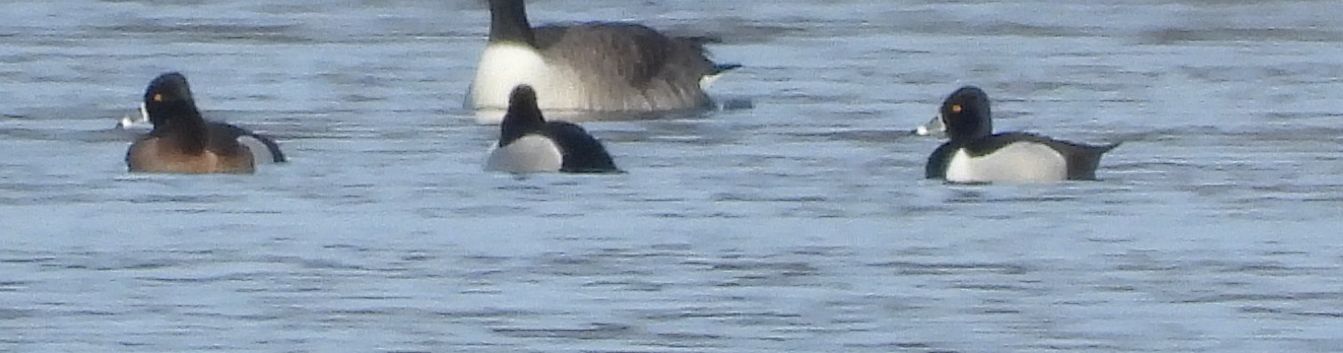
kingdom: Animalia
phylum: Chordata
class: Aves
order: Anseriformes
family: Anatidae
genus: Aythya
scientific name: Aythya collaris
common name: Ring-necked duck
